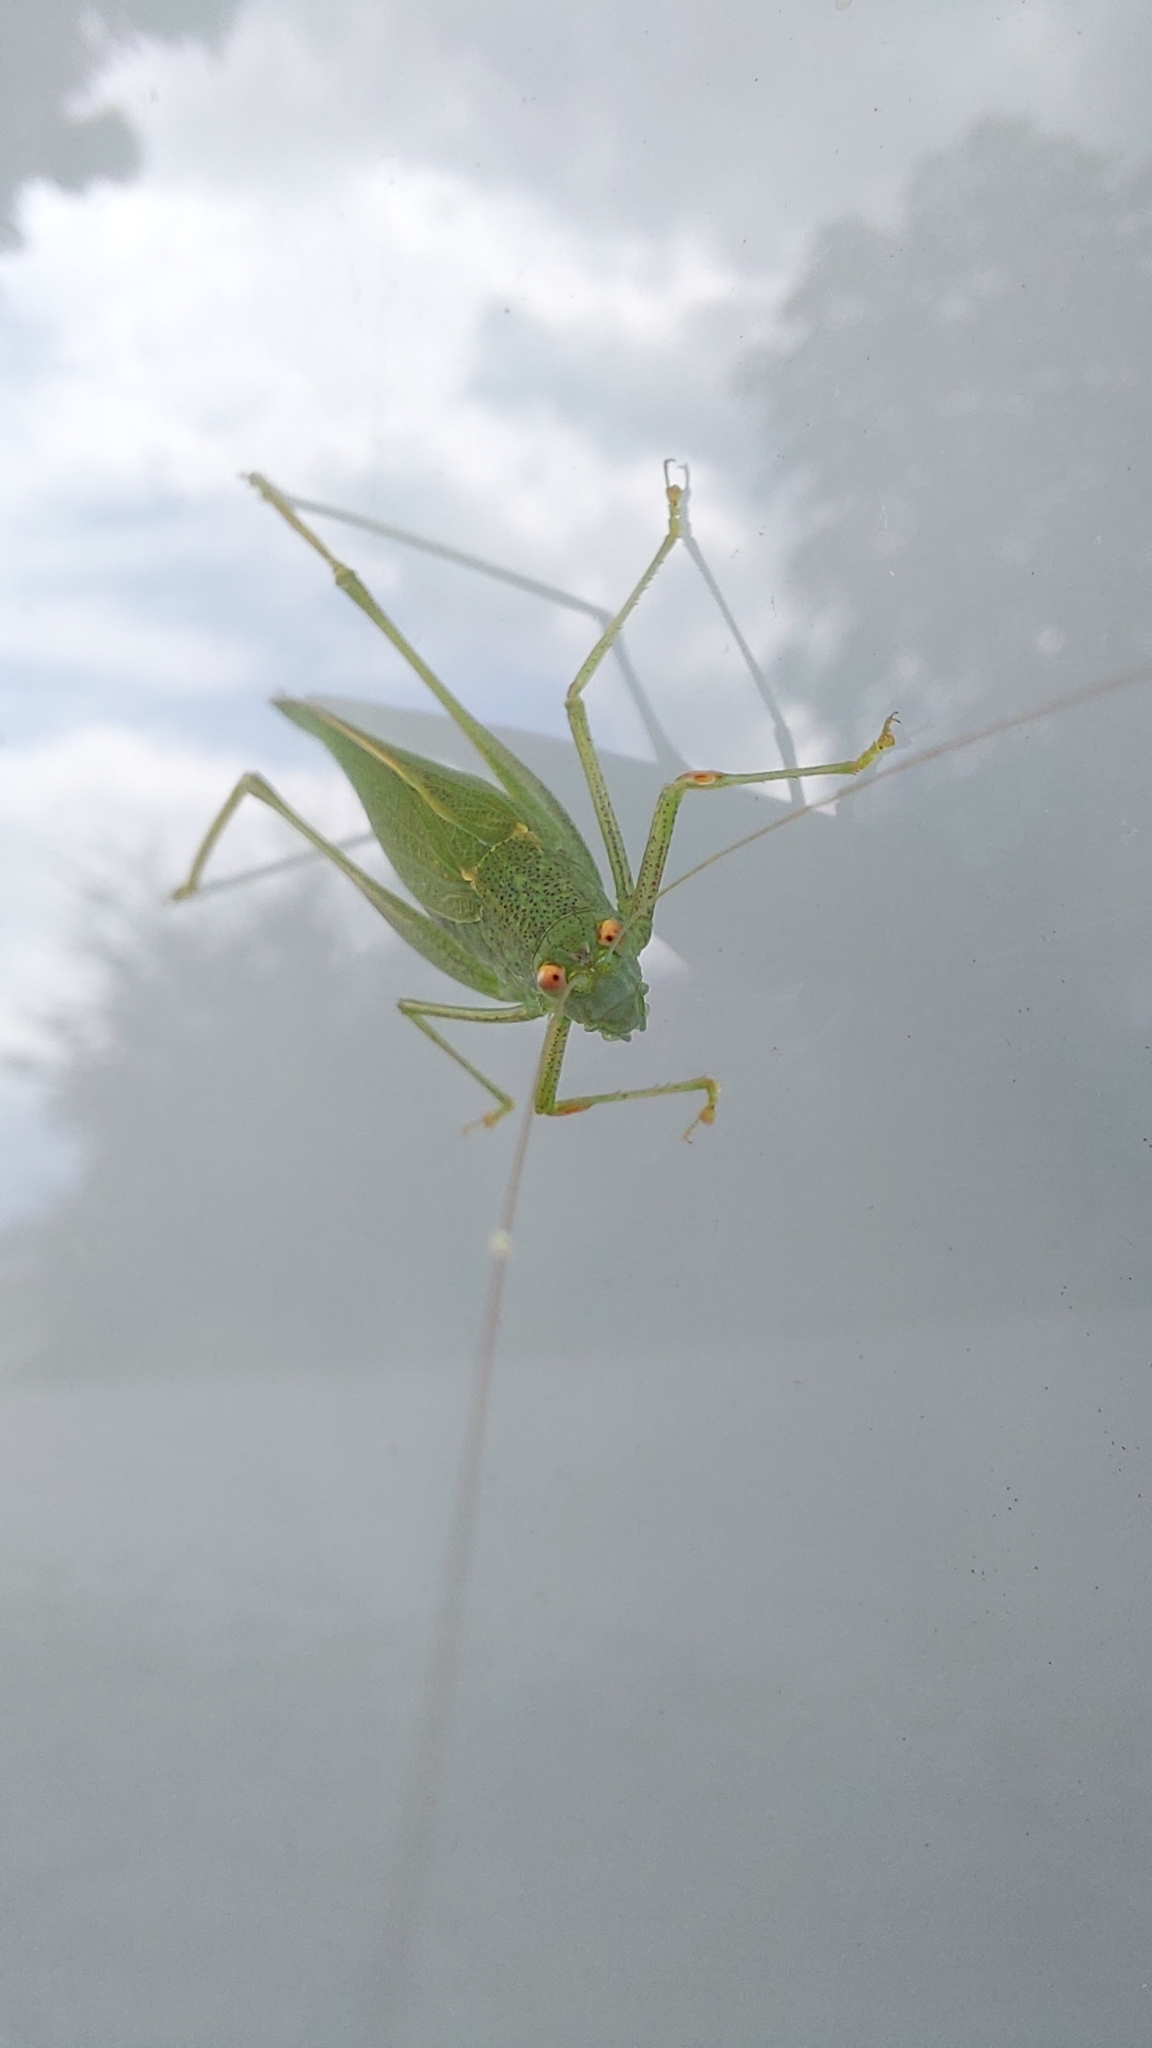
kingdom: Animalia
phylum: Arthropoda
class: Insecta
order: Orthoptera
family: Tettigoniidae
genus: Phaneroptera
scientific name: Phaneroptera nana
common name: Southern sickle bush-cricket
